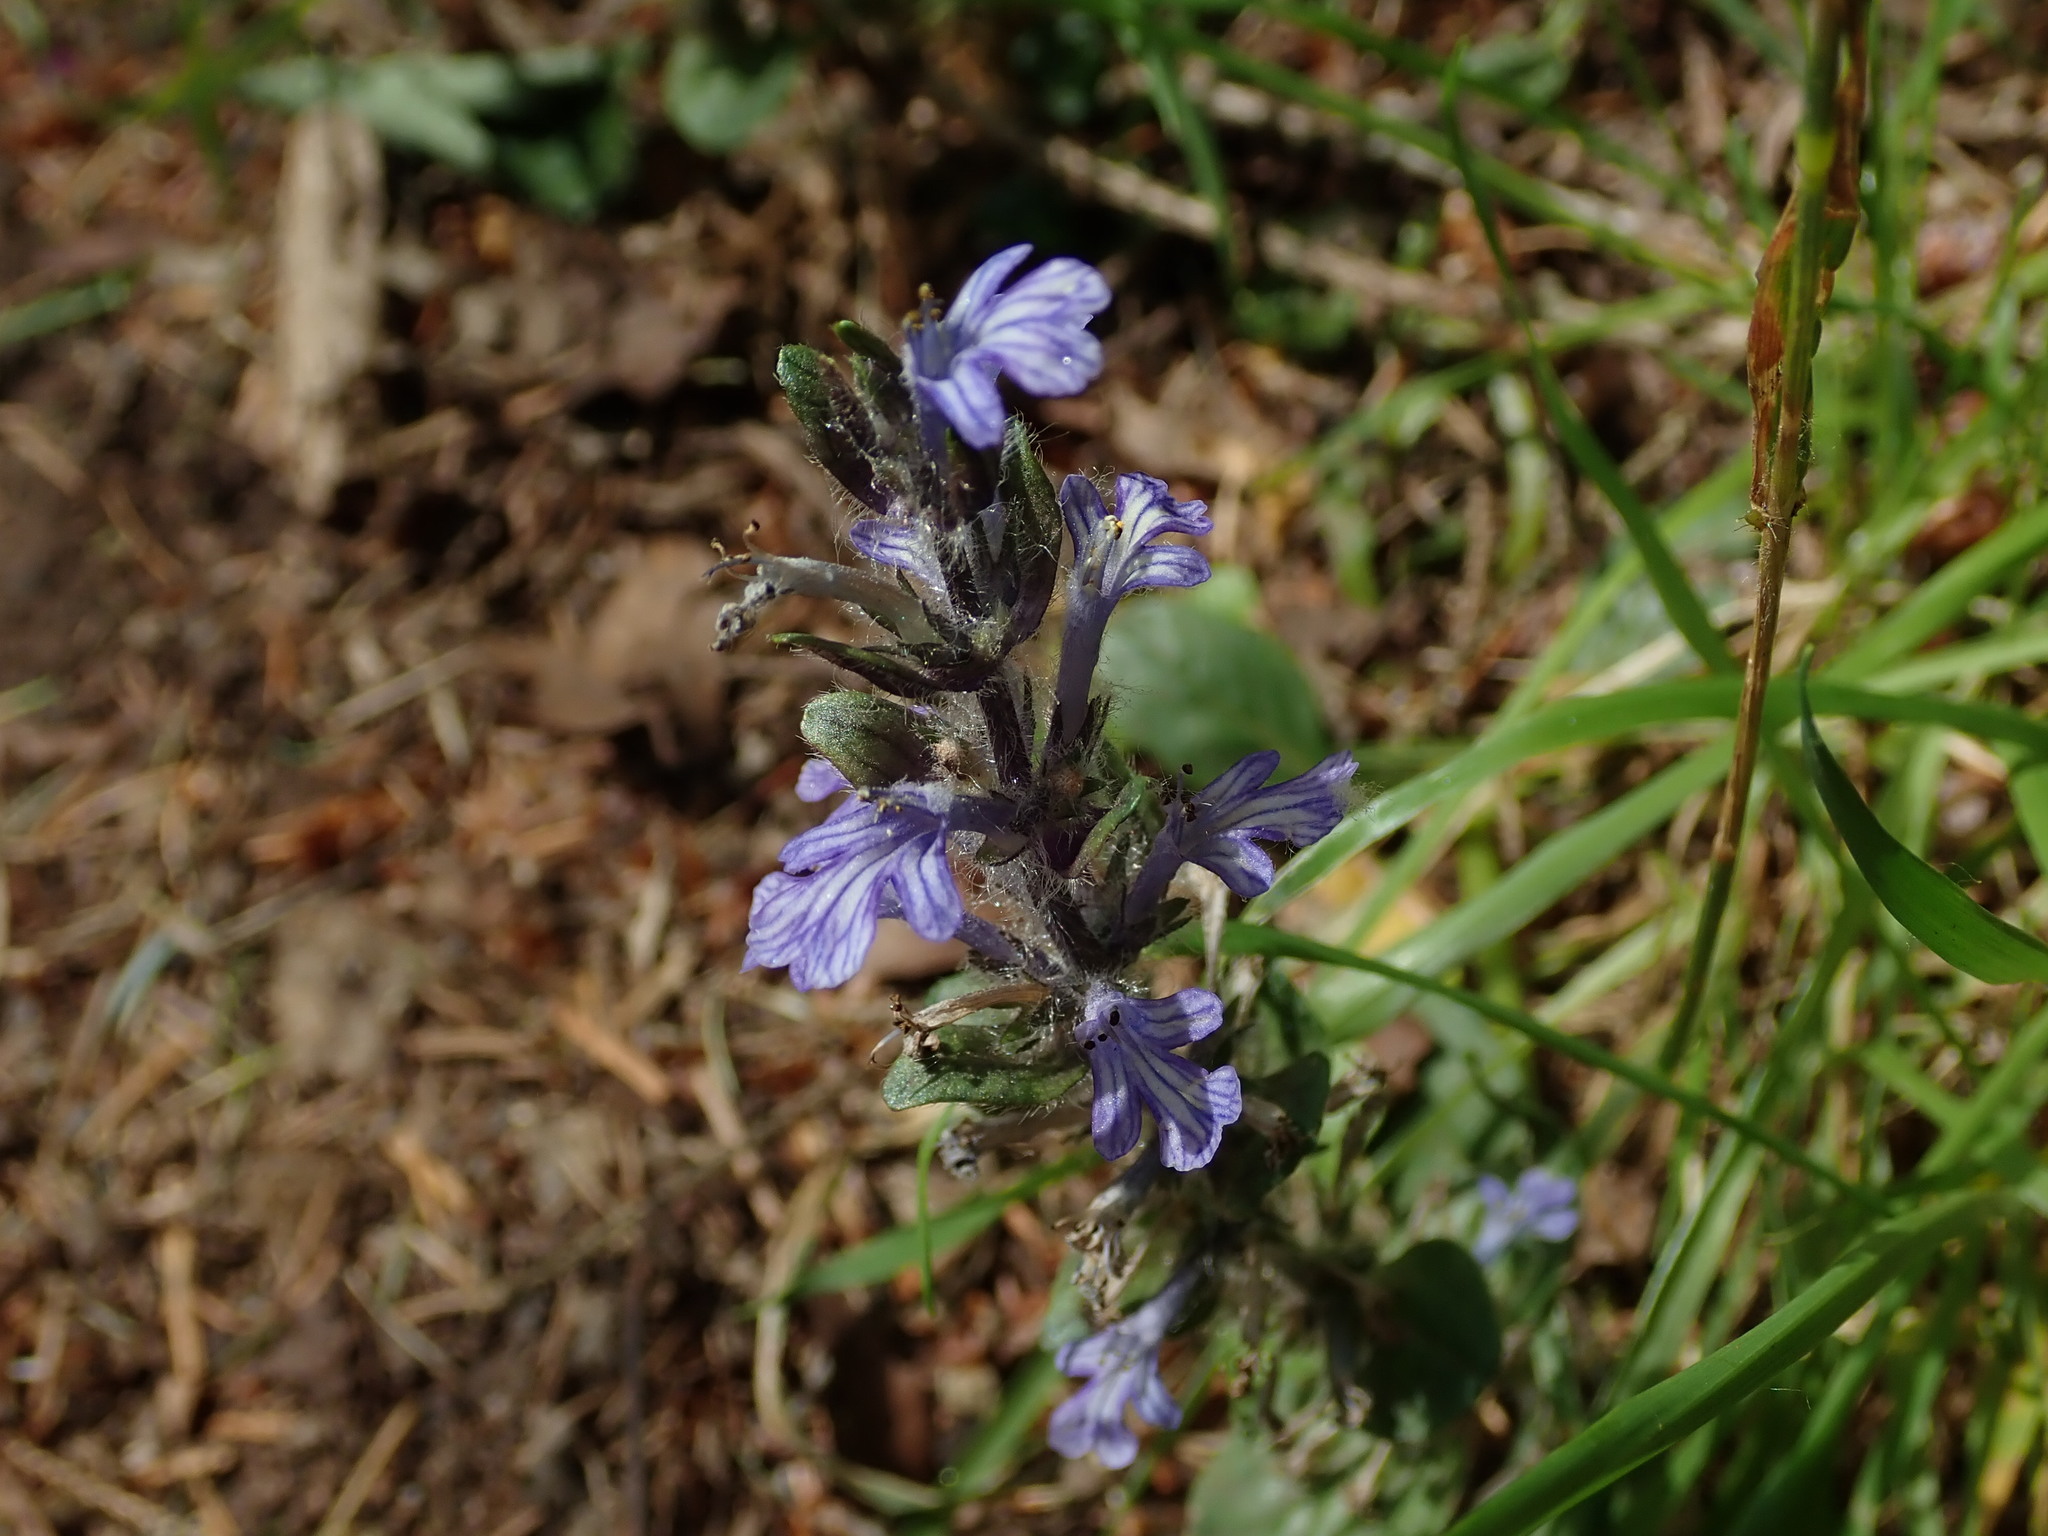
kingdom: Plantae
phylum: Tracheophyta
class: Magnoliopsida
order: Lamiales
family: Lamiaceae
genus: Ajuga
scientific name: Ajuga reptans
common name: Bugle
